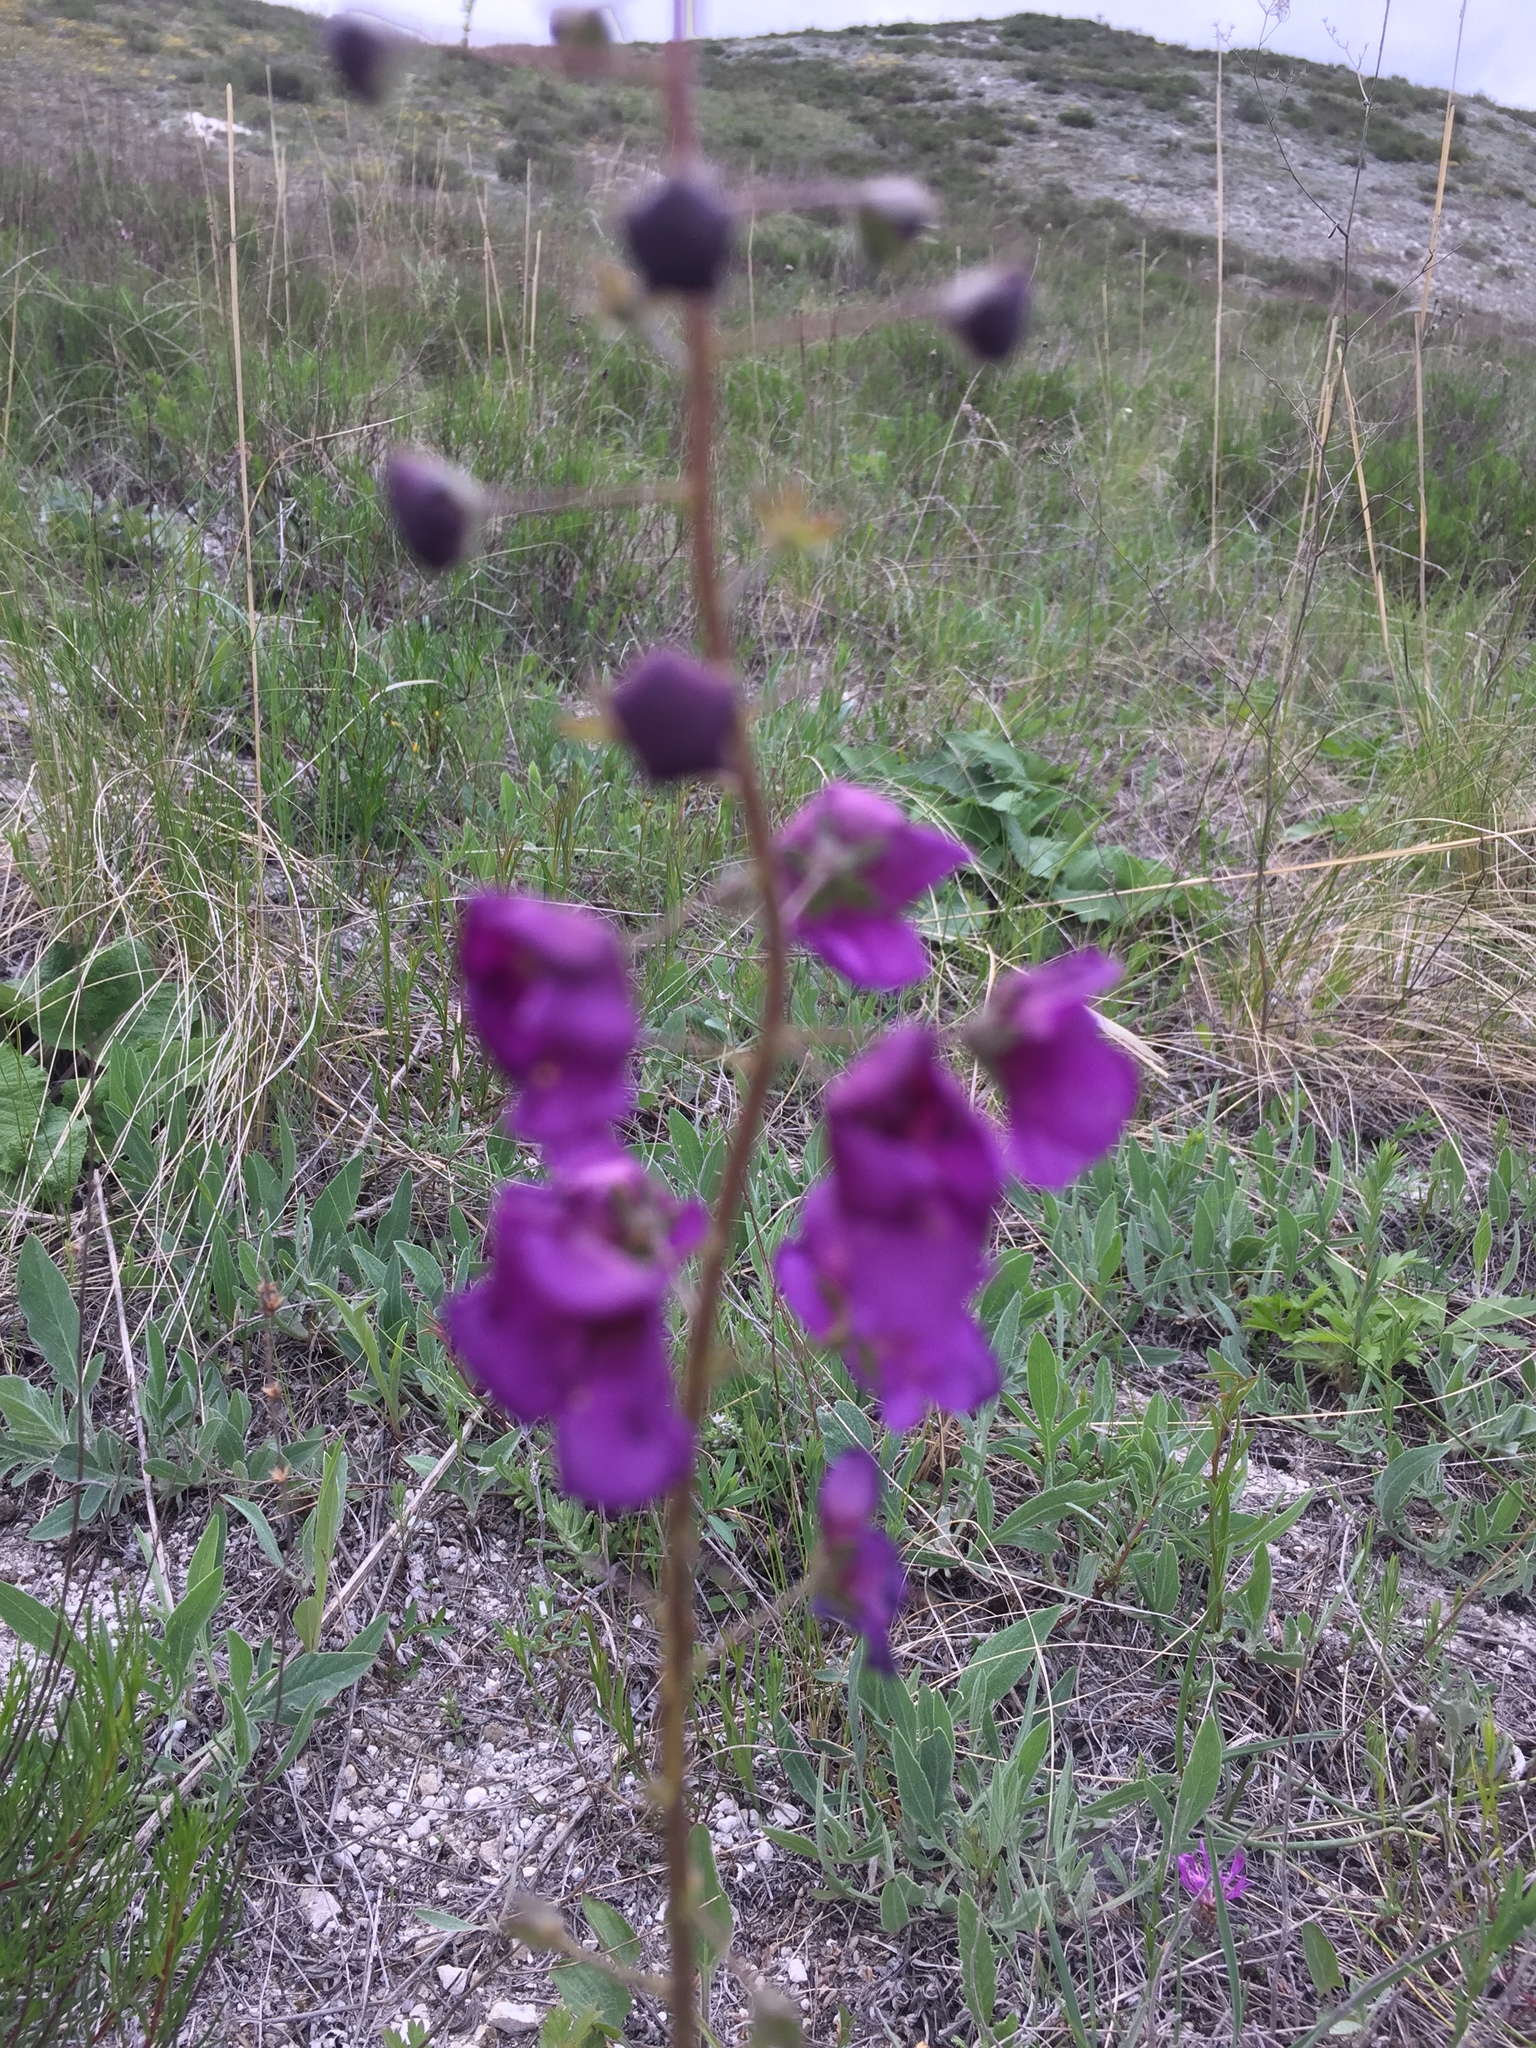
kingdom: Plantae
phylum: Tracheophyta
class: Magnoliopsida
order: Lamiales
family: Scrophulariaceae
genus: Verbascum
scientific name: Verbascum phoeniceum
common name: Purple mullein
